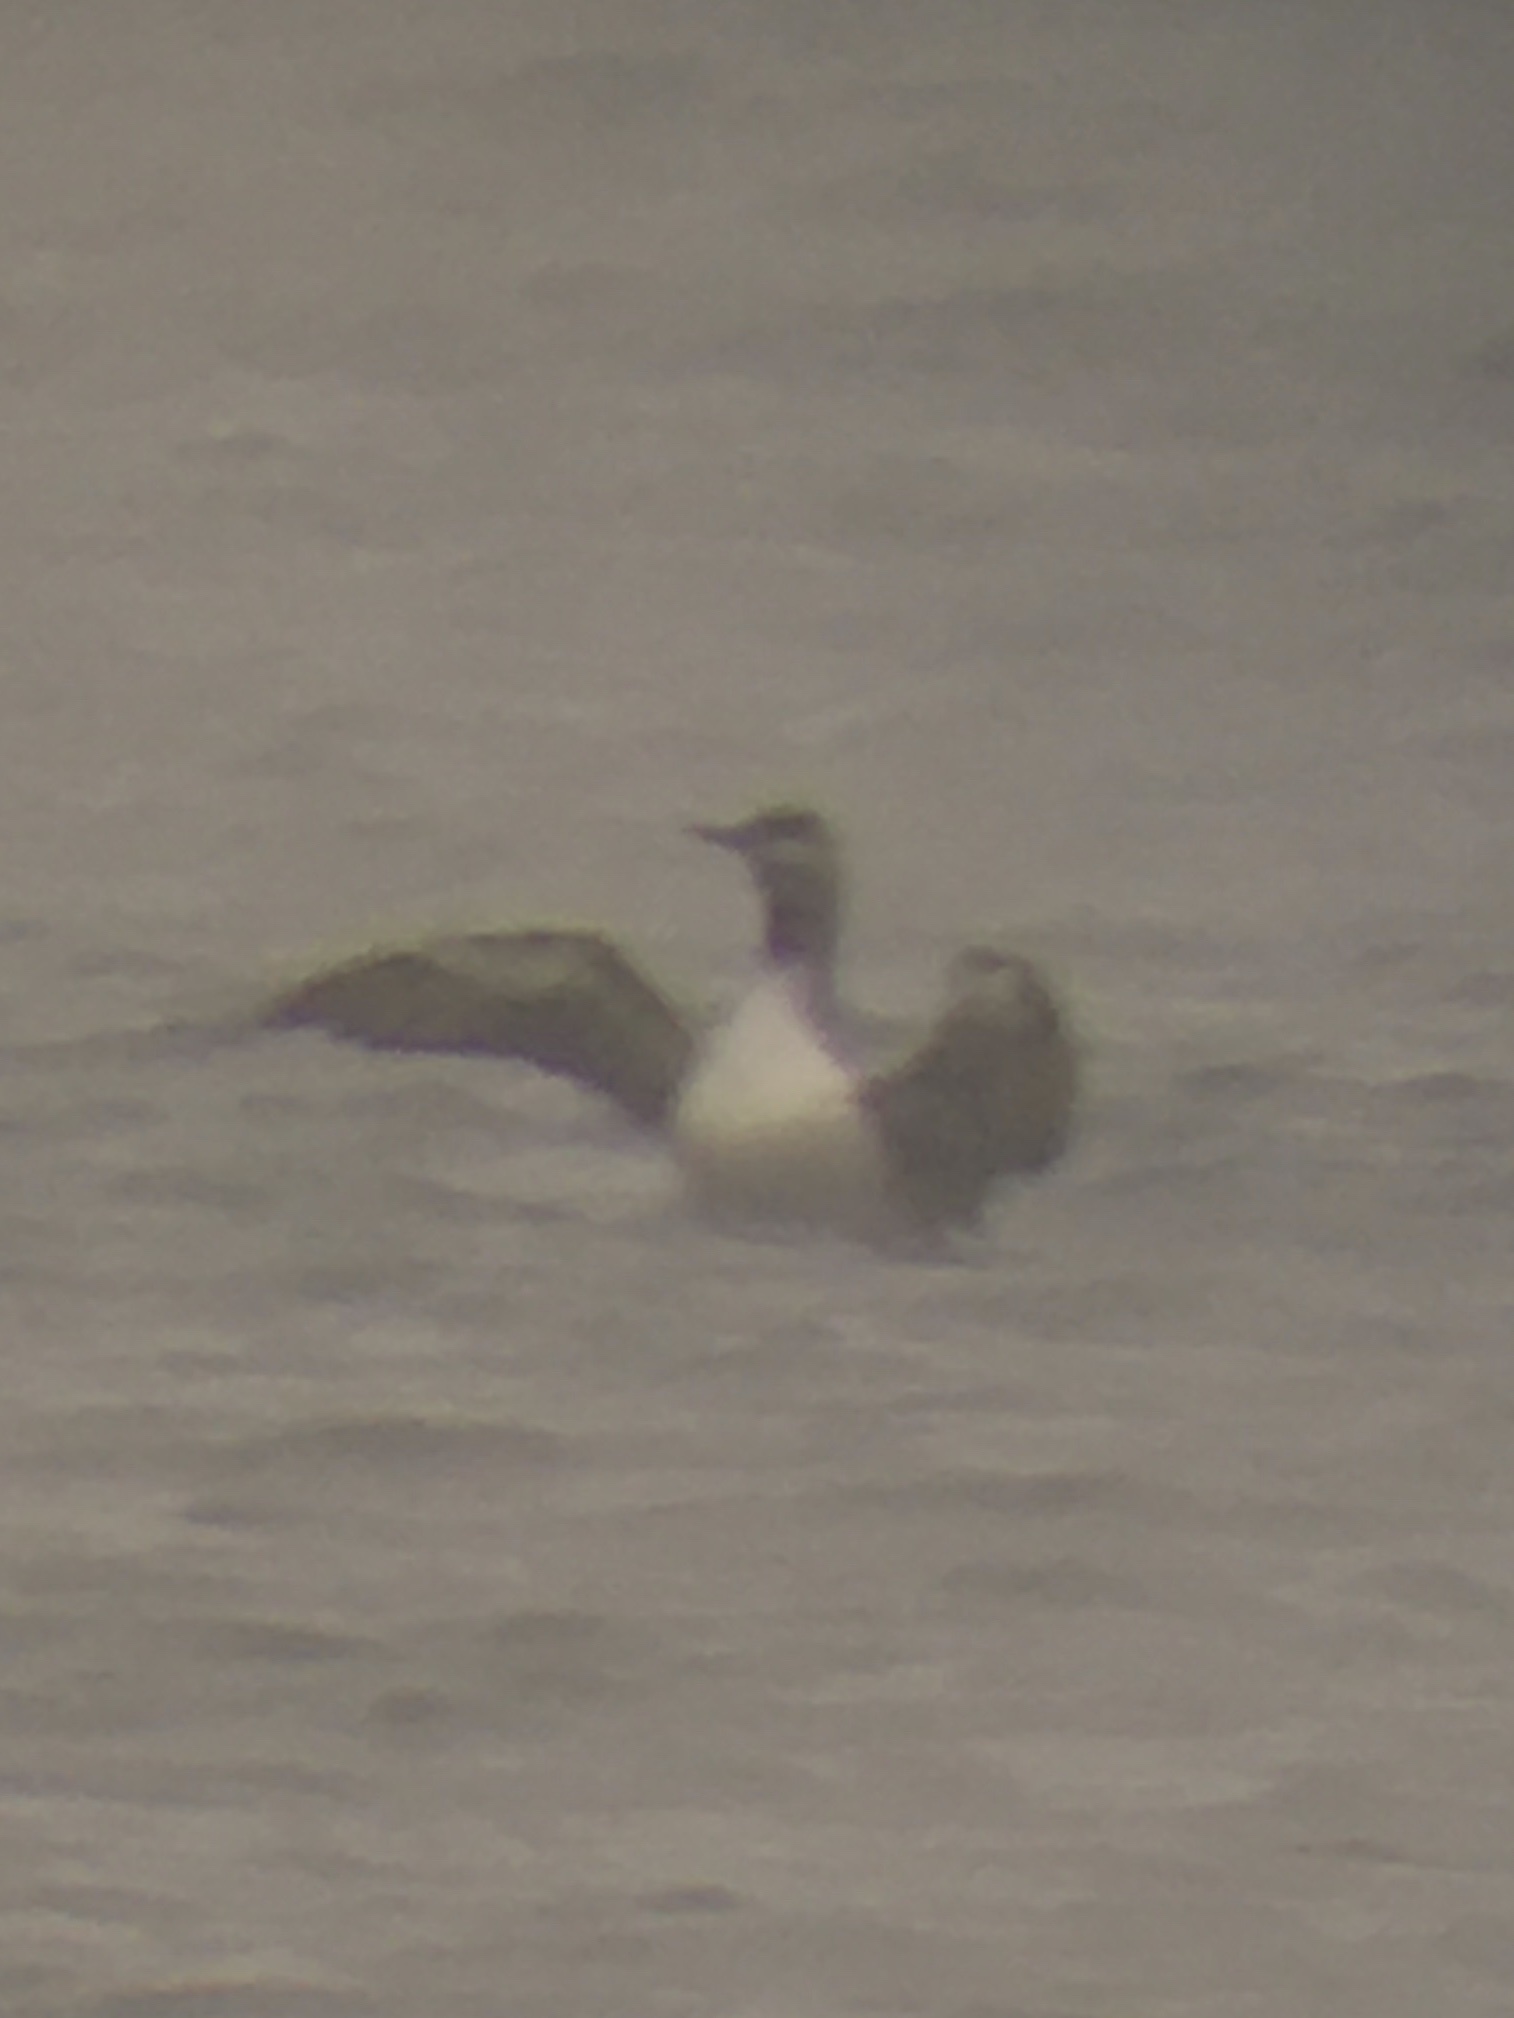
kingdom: Animalia
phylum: Chordata
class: Aves
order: Gaviiformes
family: Gaviidae
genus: Gavia
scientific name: Gavia stellata
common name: Red-throated loon
